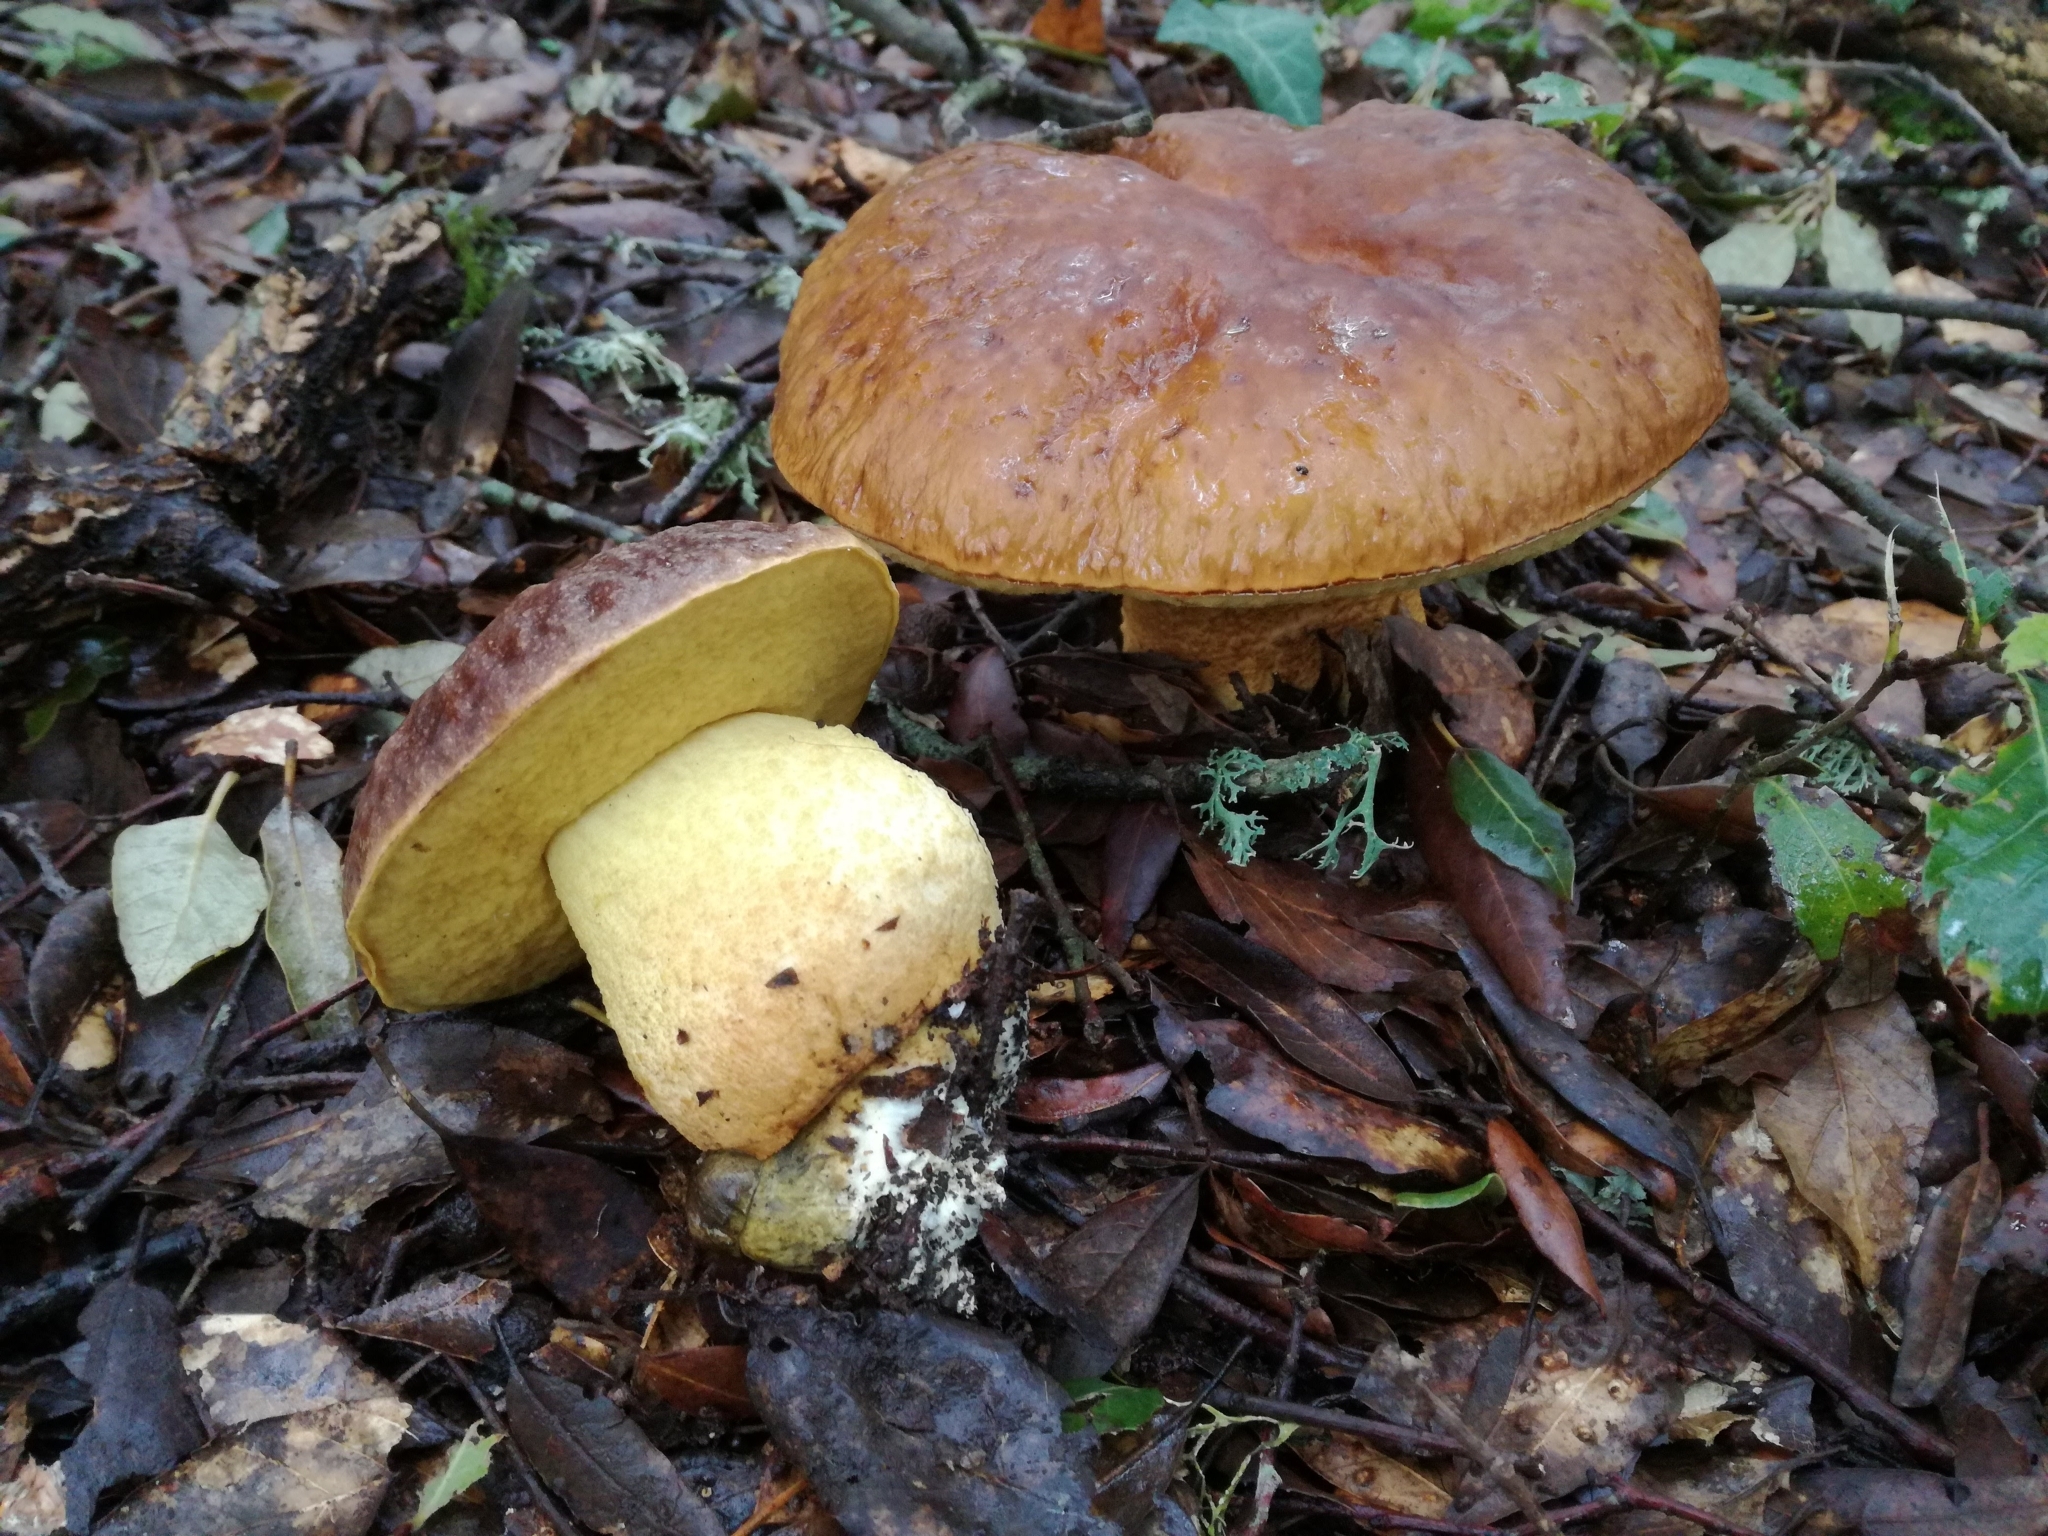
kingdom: Fungi
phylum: Basidiomycota
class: Agaricomycetes
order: Boletales
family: Boletaceae
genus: Leccinellum
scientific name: Leccinellum lepidum
